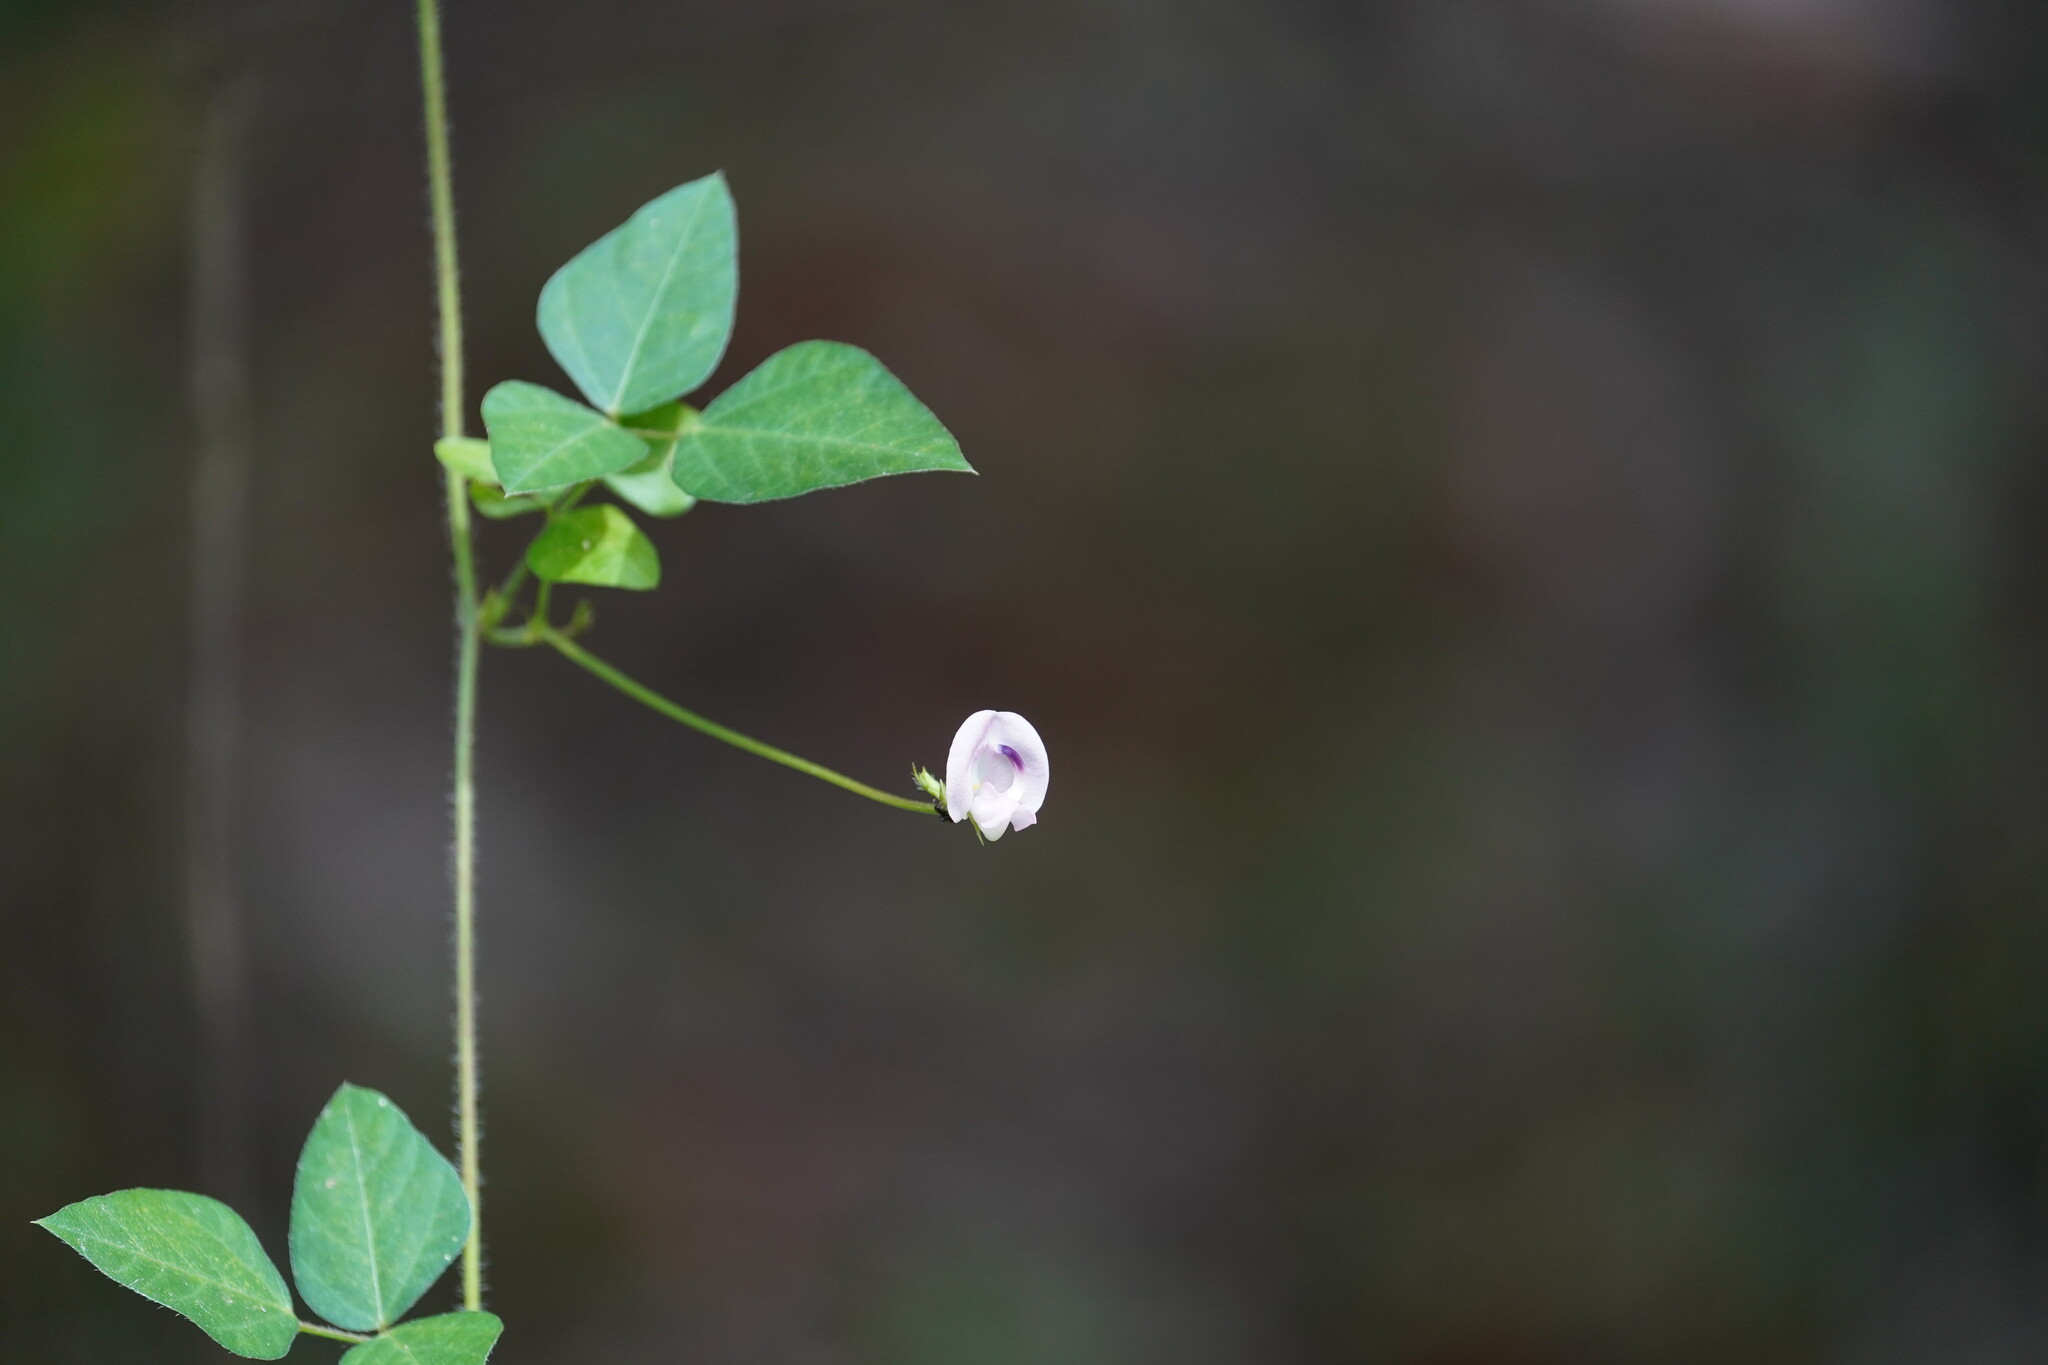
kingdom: Plantae
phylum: Tracheophyta
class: Magnoliopsida
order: Fabales
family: Fabaceae
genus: Strophostyles
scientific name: Strophostyles helvola
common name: Trailing wild bean
